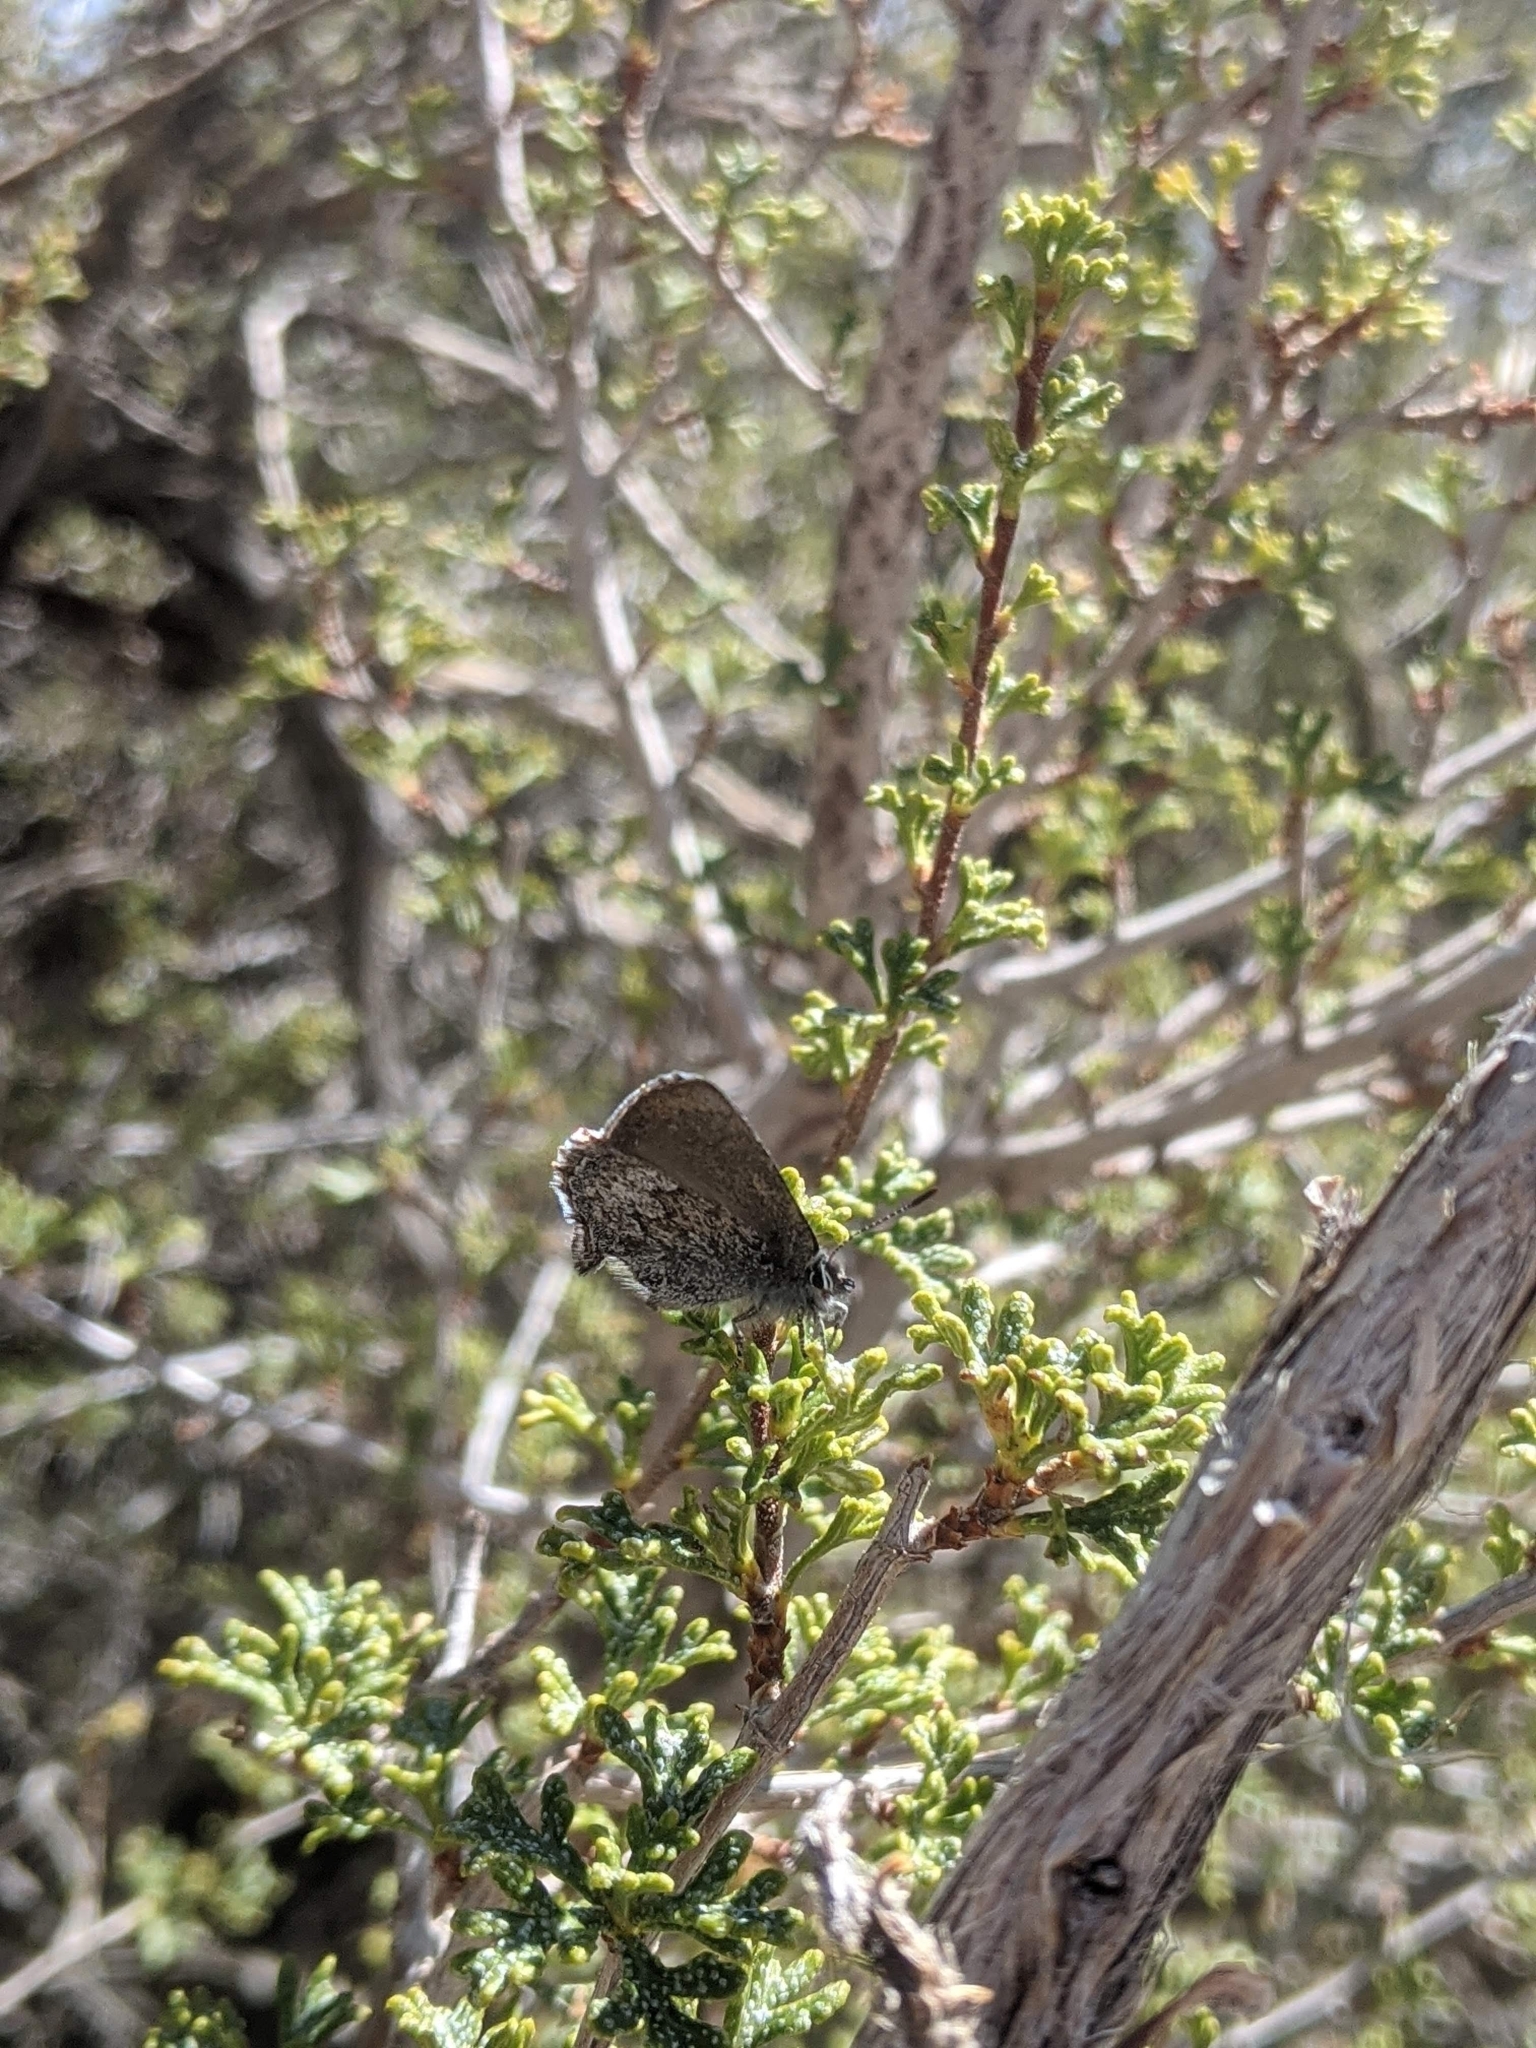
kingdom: Animalia
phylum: Arthropoda
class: Insecta
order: Lepidoptera
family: Lycaenidae
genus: Callophrys
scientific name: Callophrys fotis
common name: Desert elfin
